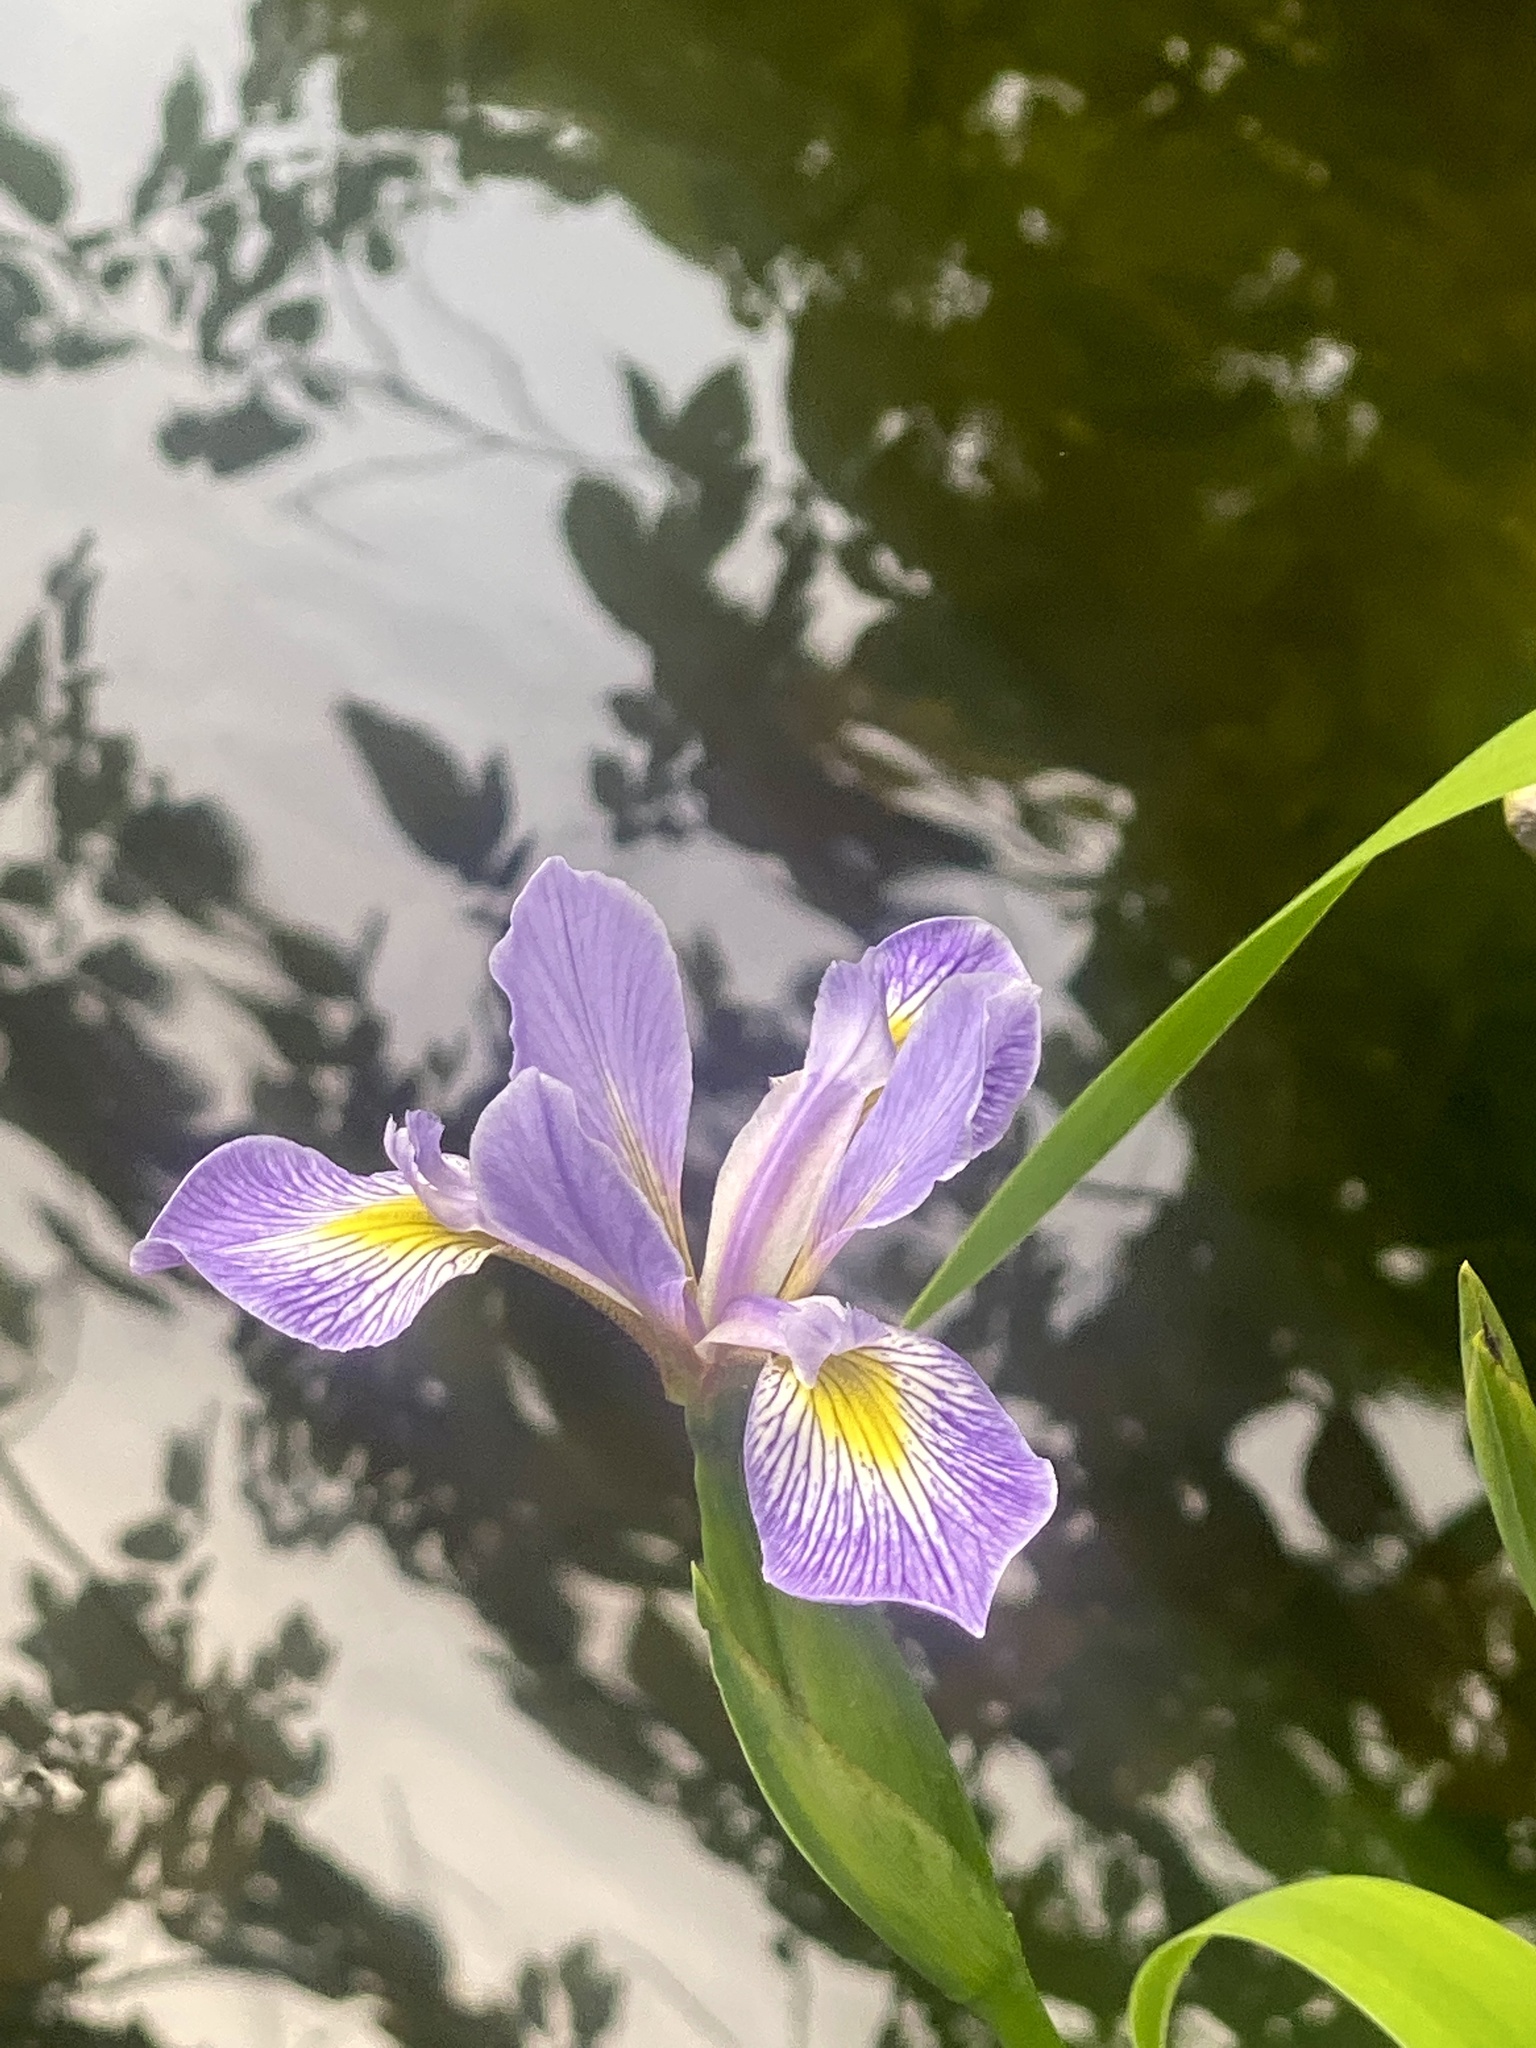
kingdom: Plantae
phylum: Tracheophyta
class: Liliopsida
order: Asparagales
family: Iridaceae
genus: Iris
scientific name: Iris versicolor
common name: Purple iris
